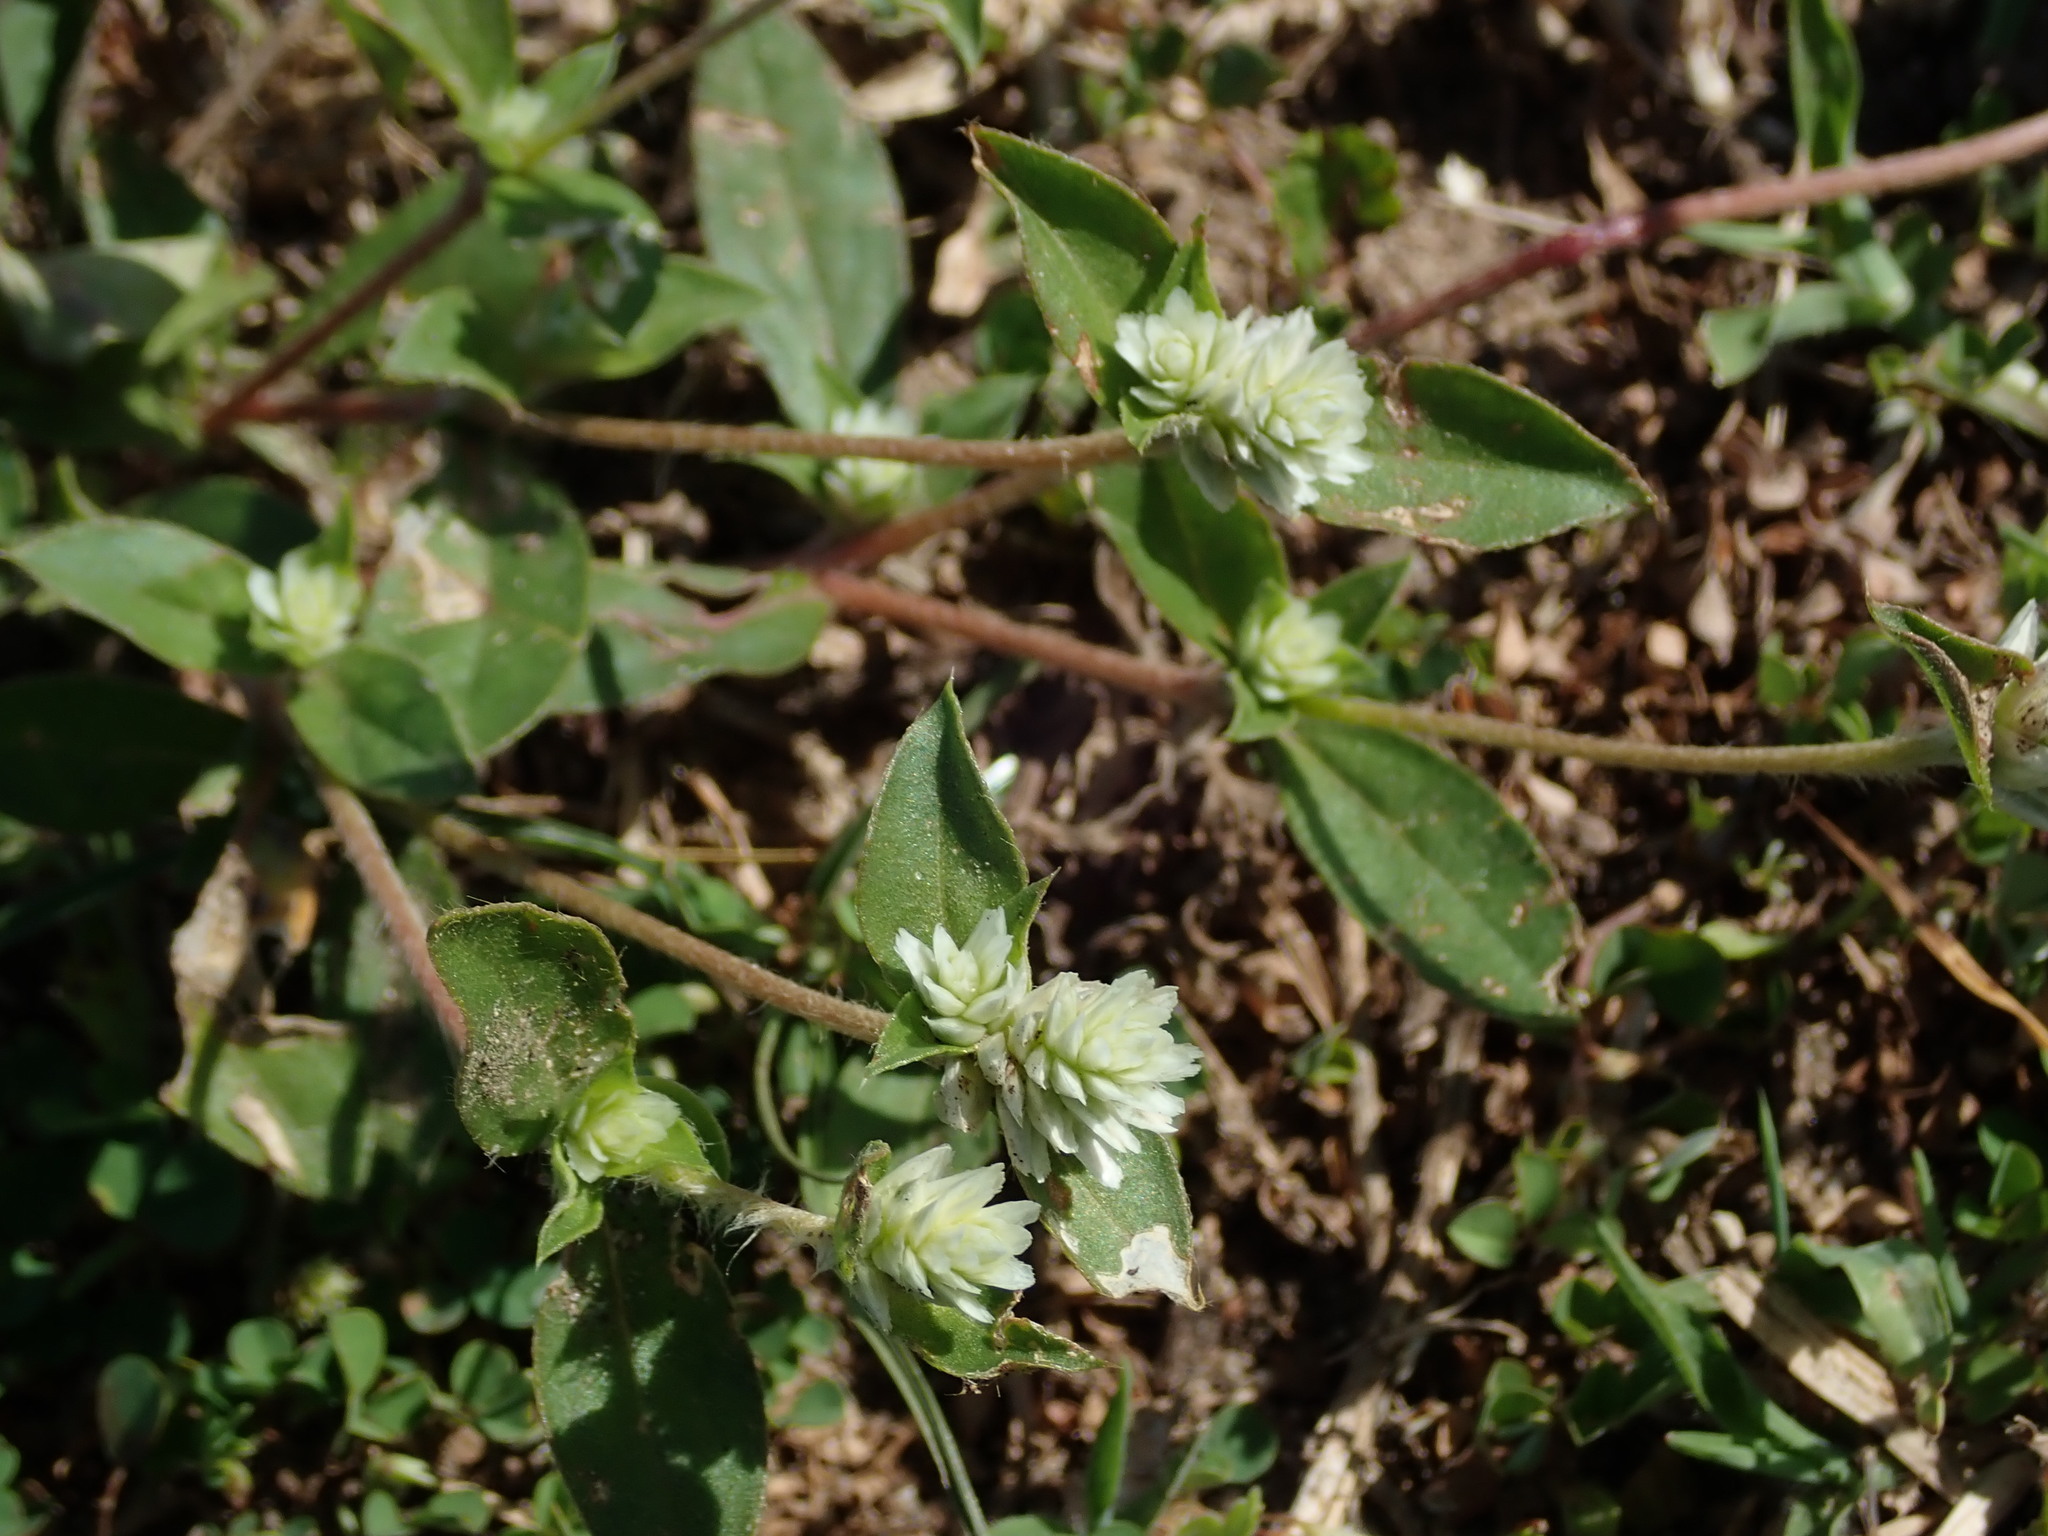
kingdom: Plantae
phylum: Tracheophyta
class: Magnoliopsida
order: Caryophyllales
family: Amaranthaceae
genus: Gomphrena
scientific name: Gomphrena serrata
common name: Arrasa con todo
